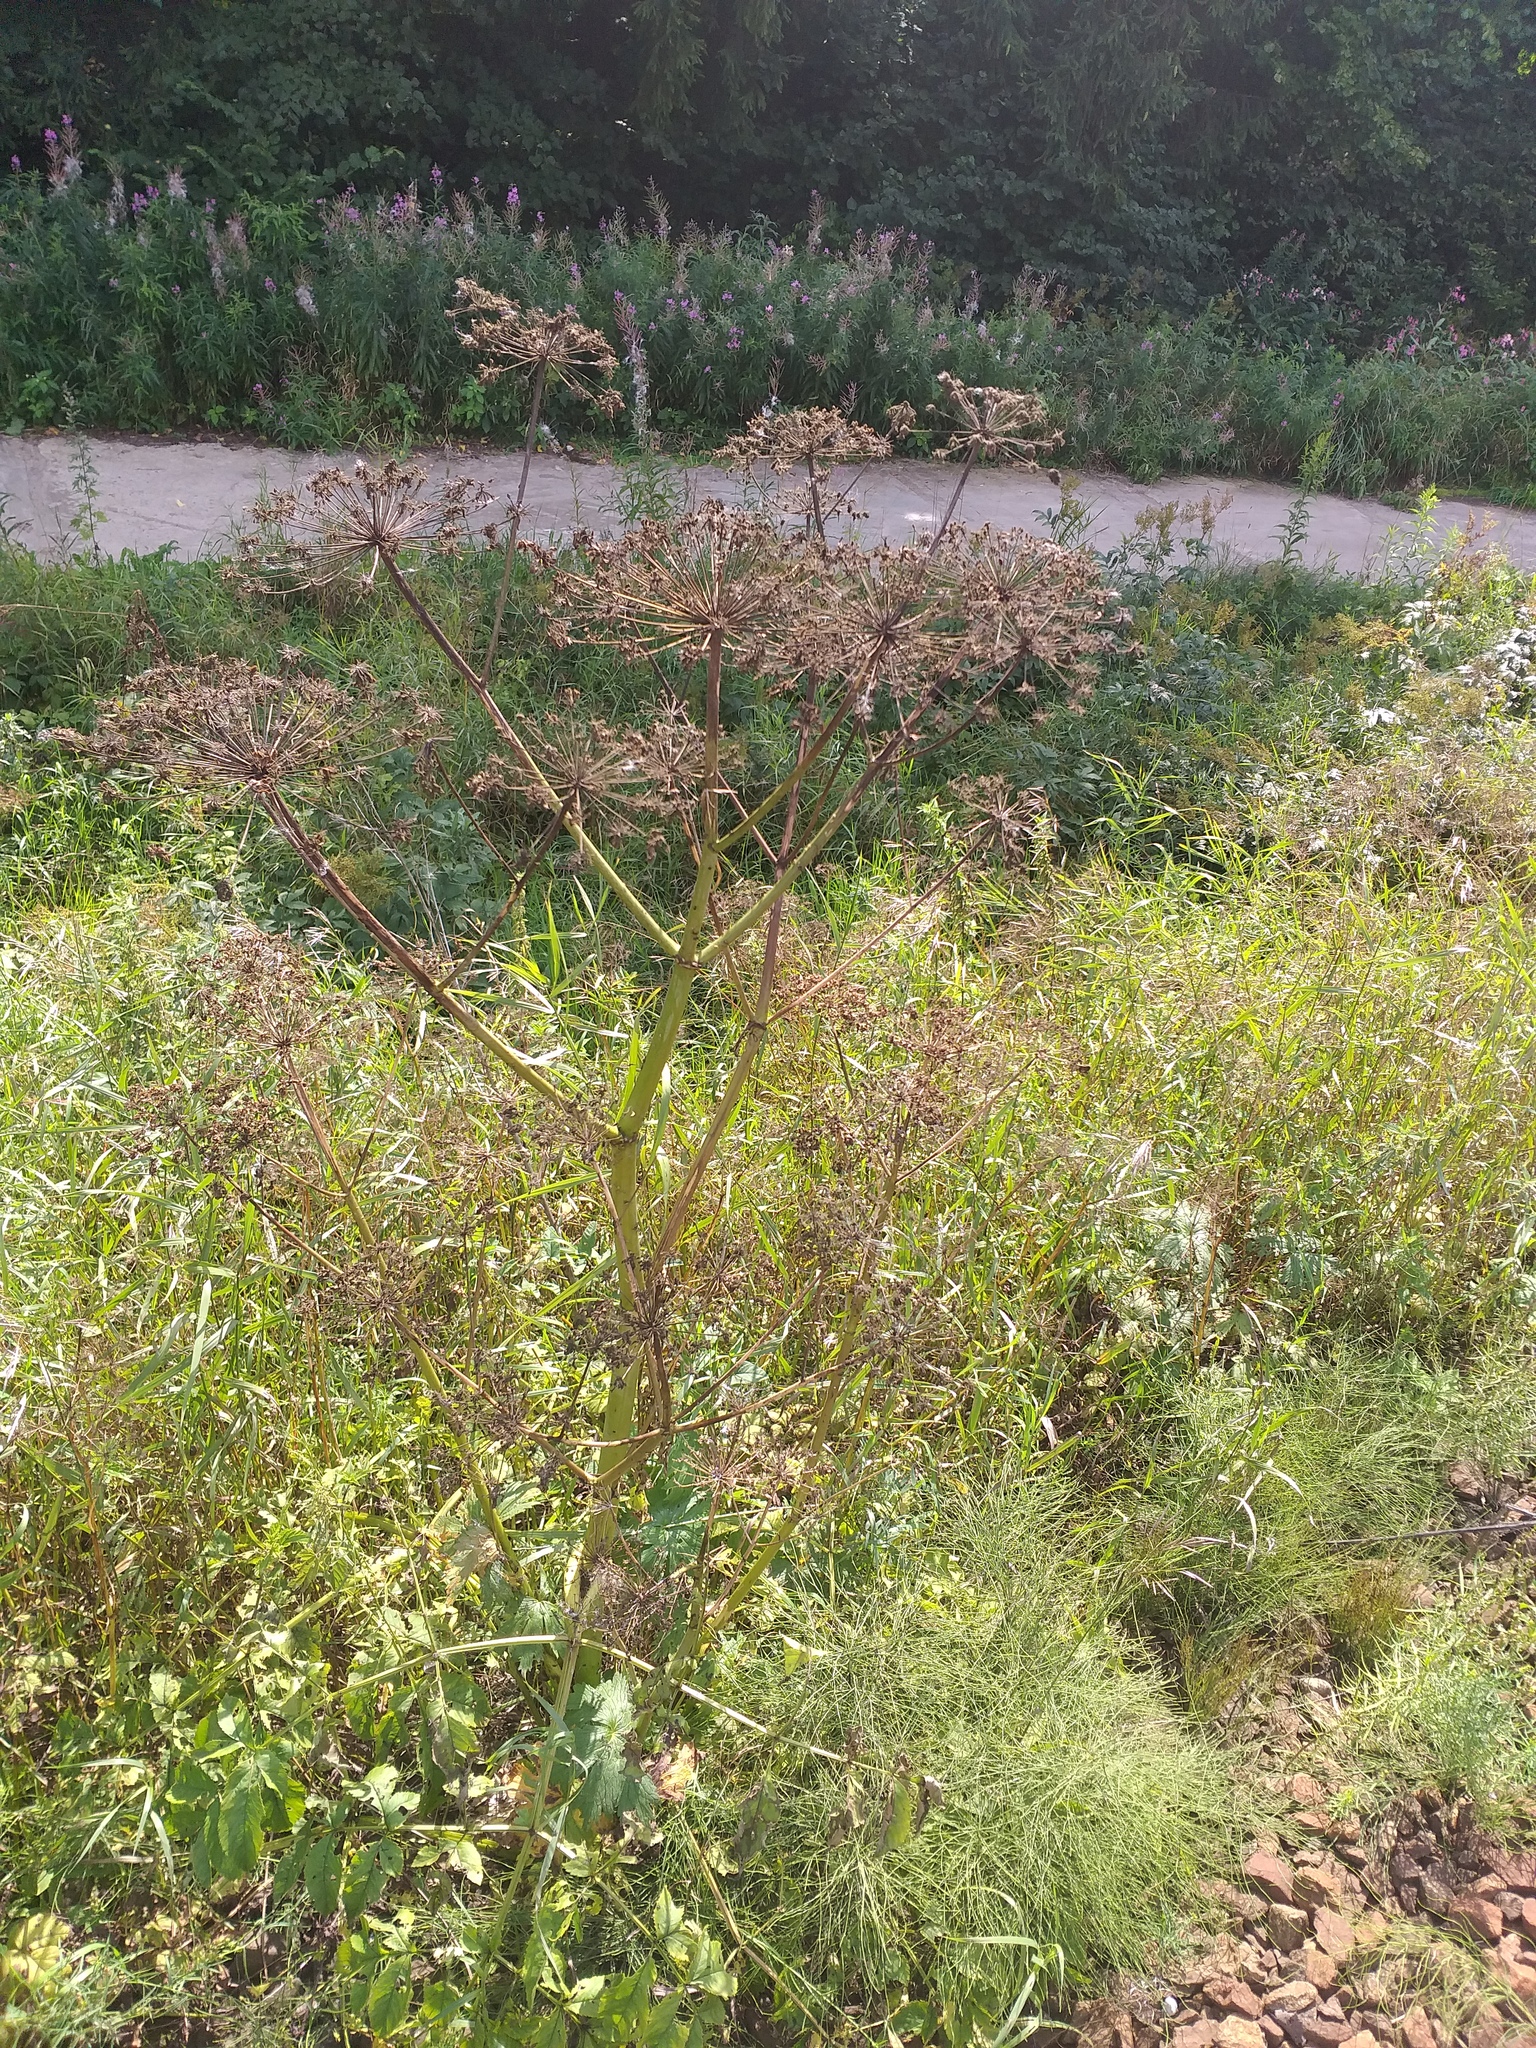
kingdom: Plantae
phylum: Tracheophyta
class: Magnoliopsida
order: Apiales
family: Apiaceae
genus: Angelica
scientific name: Angelica sylvestris
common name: Wild angelica
